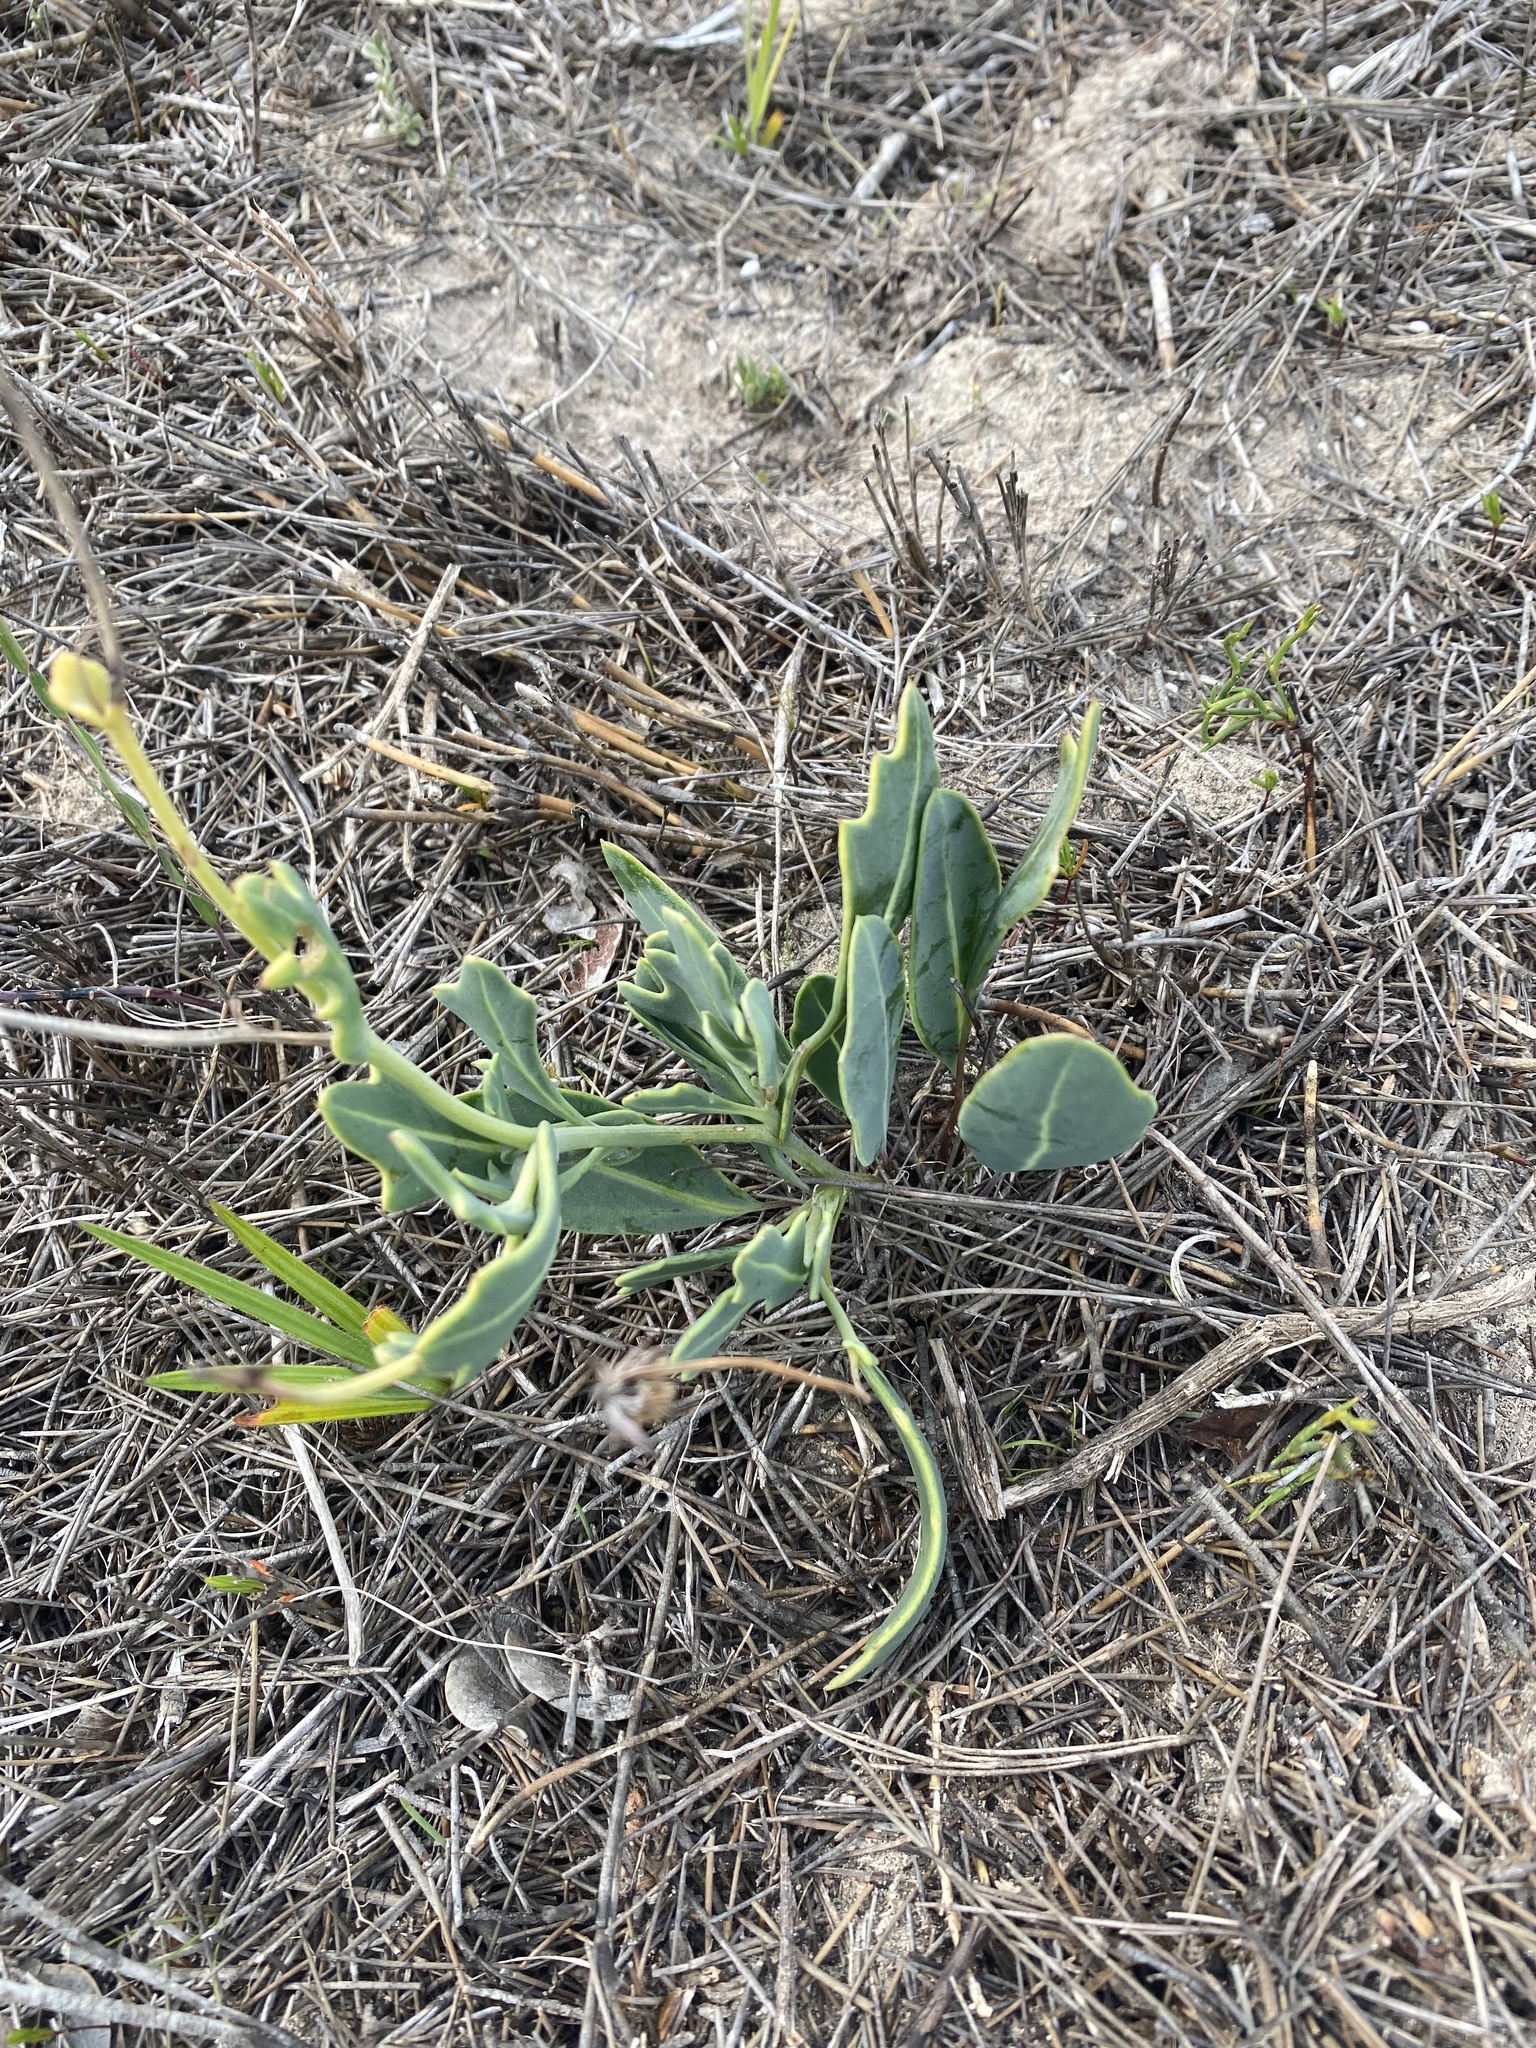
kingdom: Plantae
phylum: Tracheophyta
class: Magnoliopsida
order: Asterales
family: Asteraceae
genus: Othonna
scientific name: Othonna digitata
